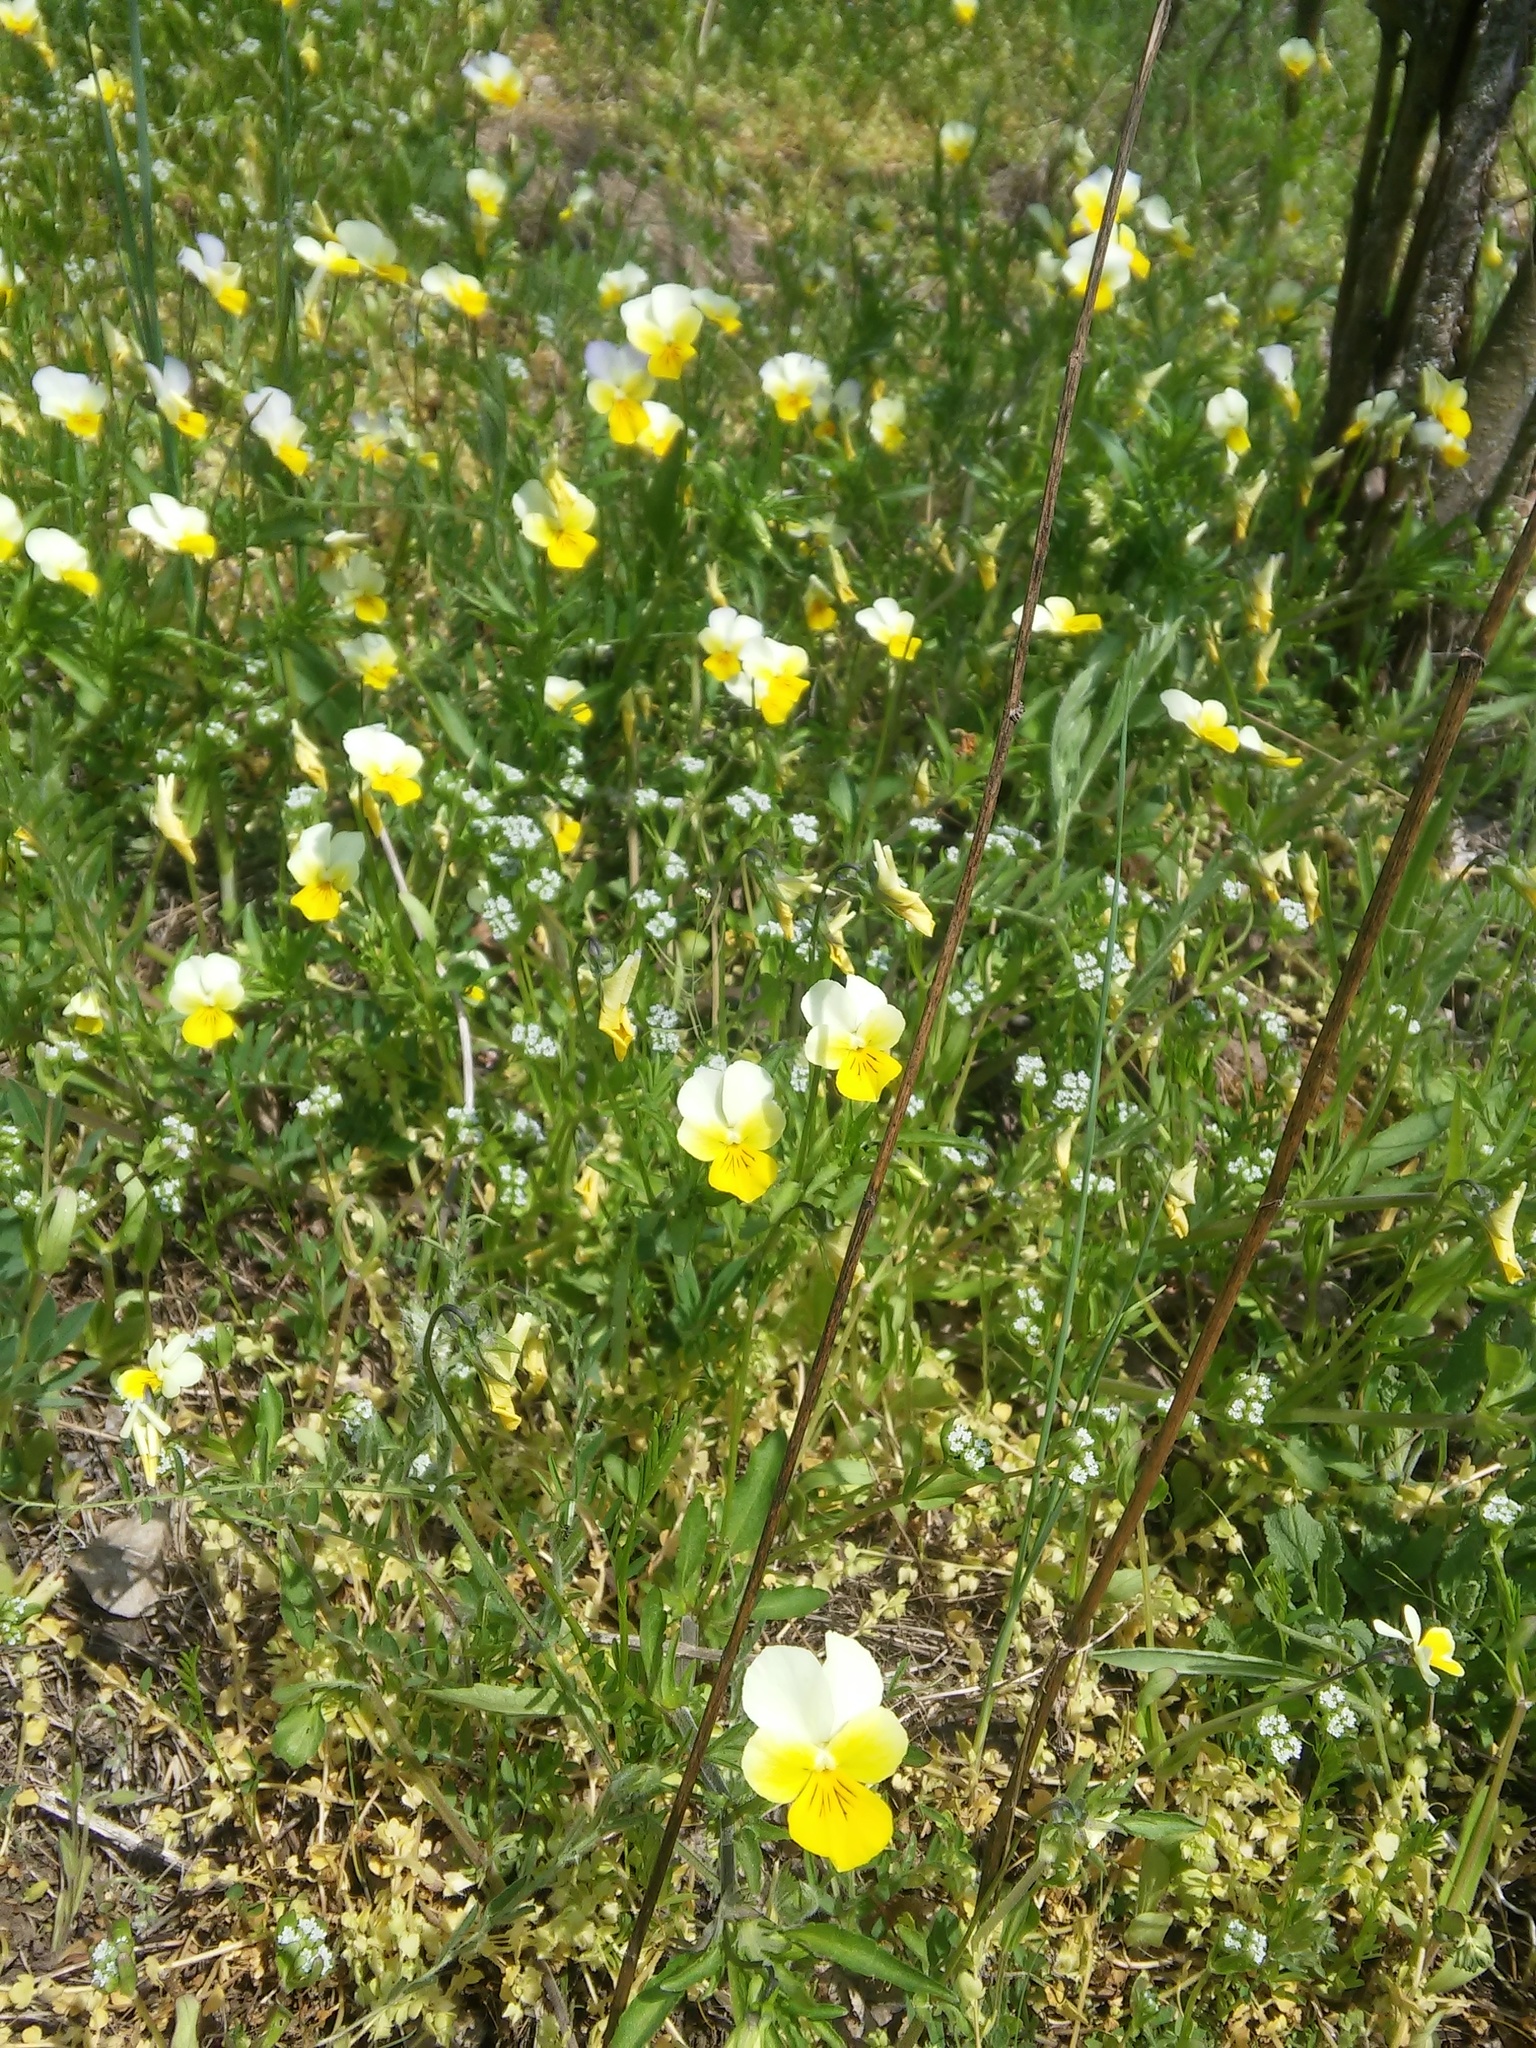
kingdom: Plantae
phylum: Tracheophyta
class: Magnoliopsida
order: Malpighiales
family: Violaceae
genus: Viola
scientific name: Viola hymettia
